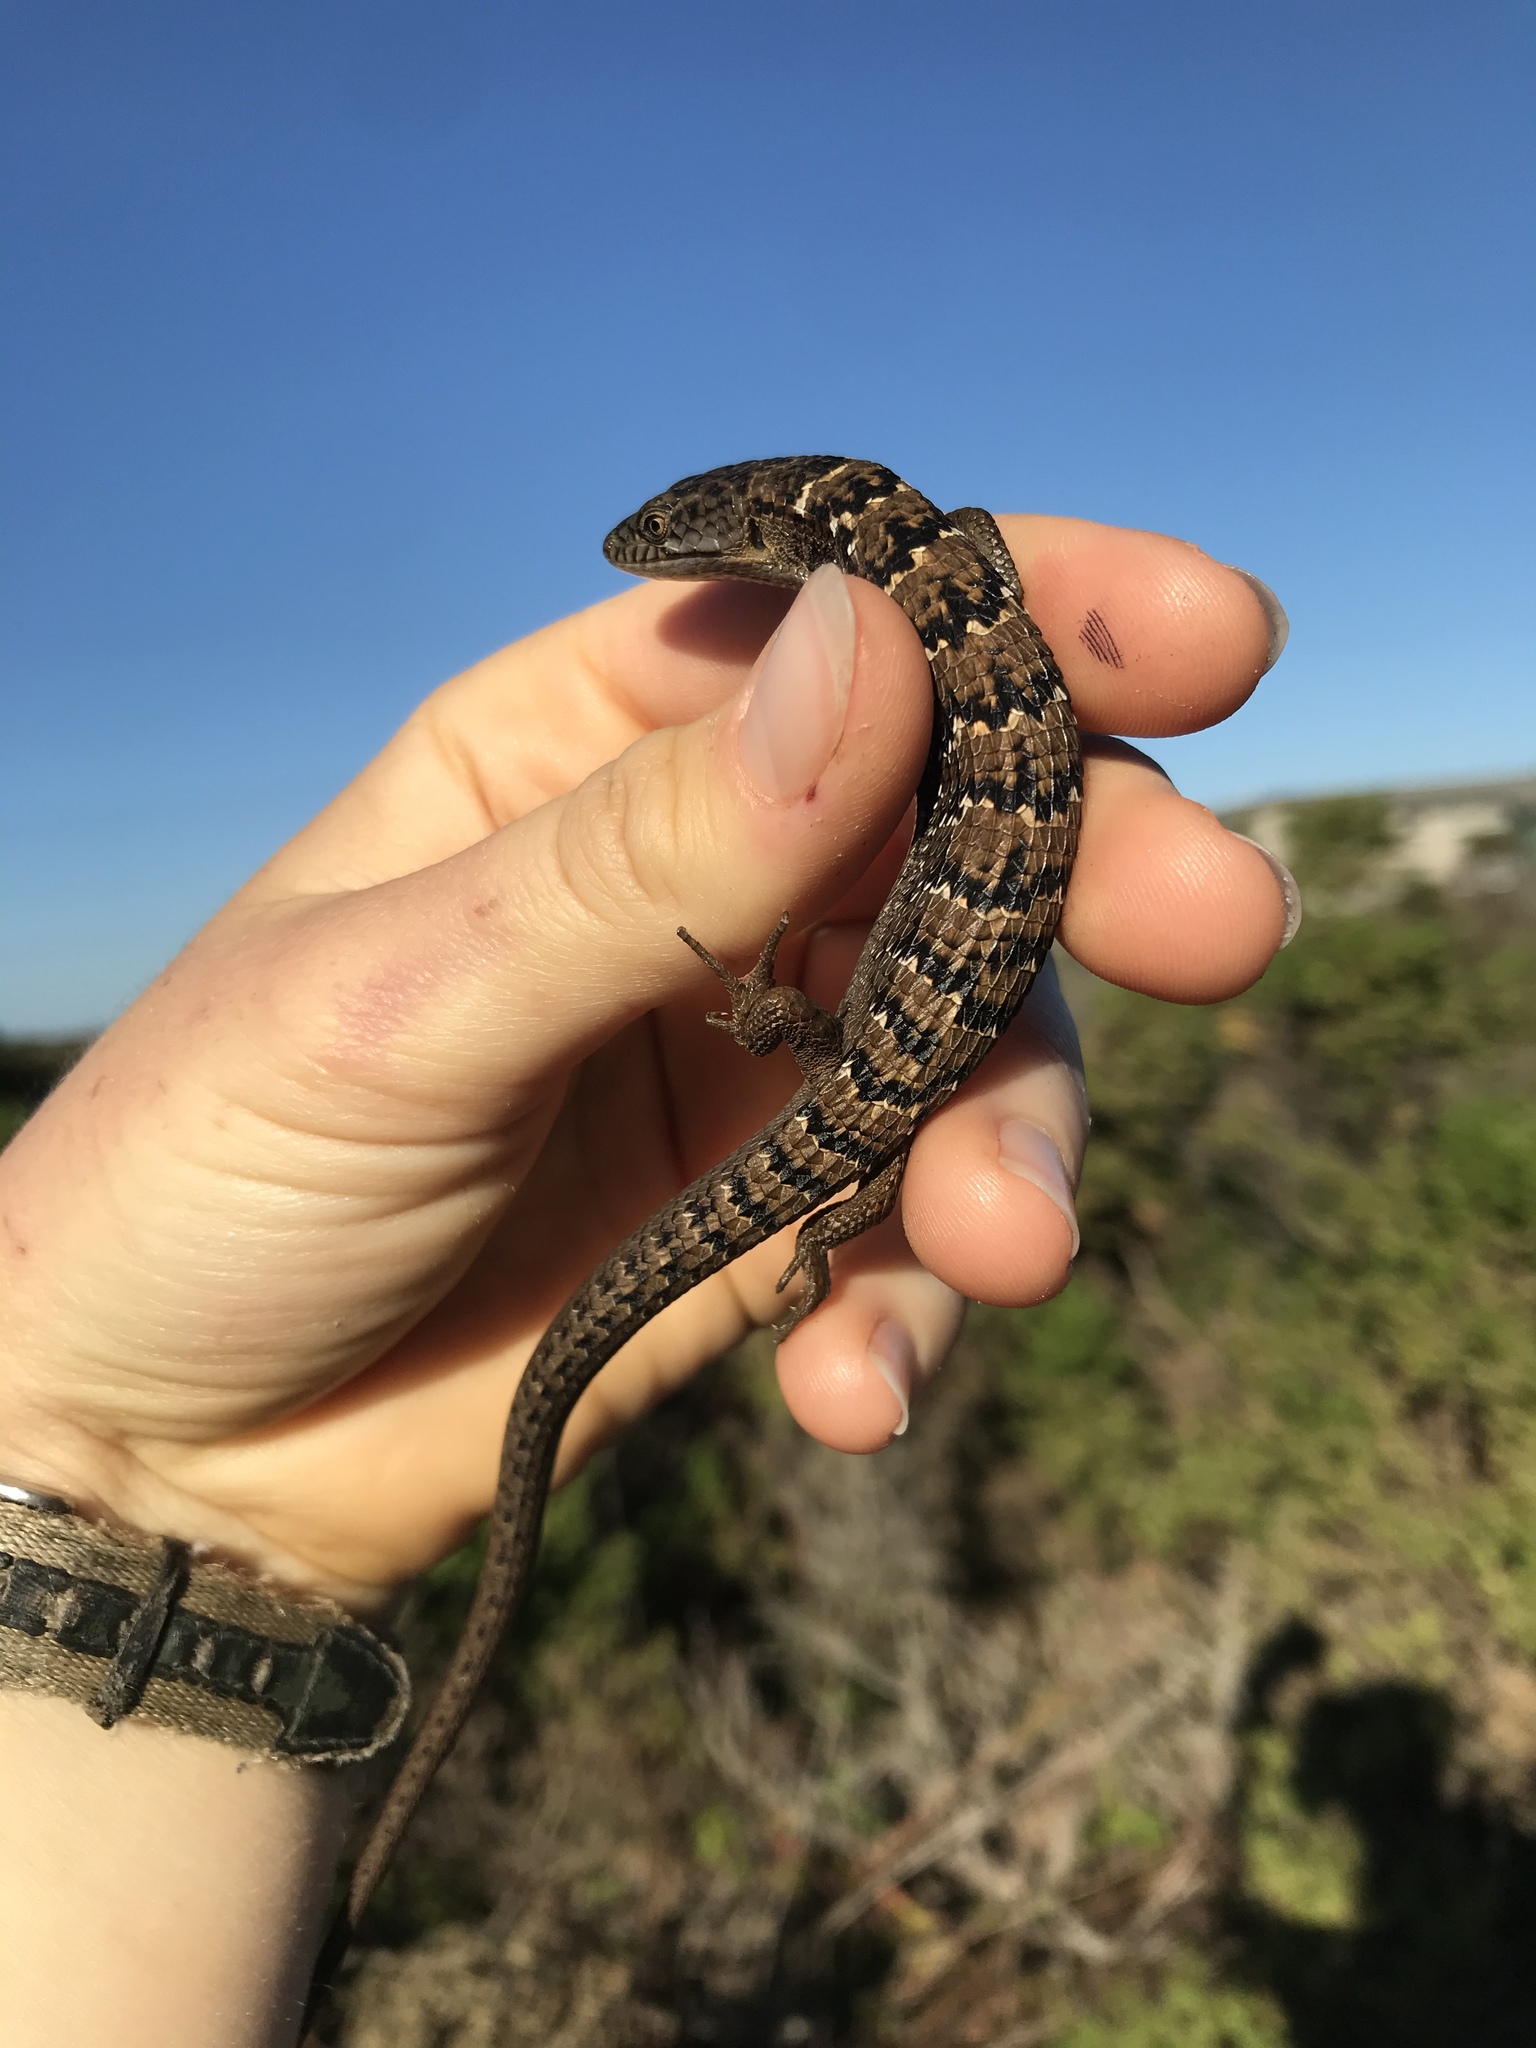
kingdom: Animalia
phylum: Chordata
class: Squamata
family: Anguidae
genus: Elgaria
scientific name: Elgaria multicarinata
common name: Southern alligator lizard
